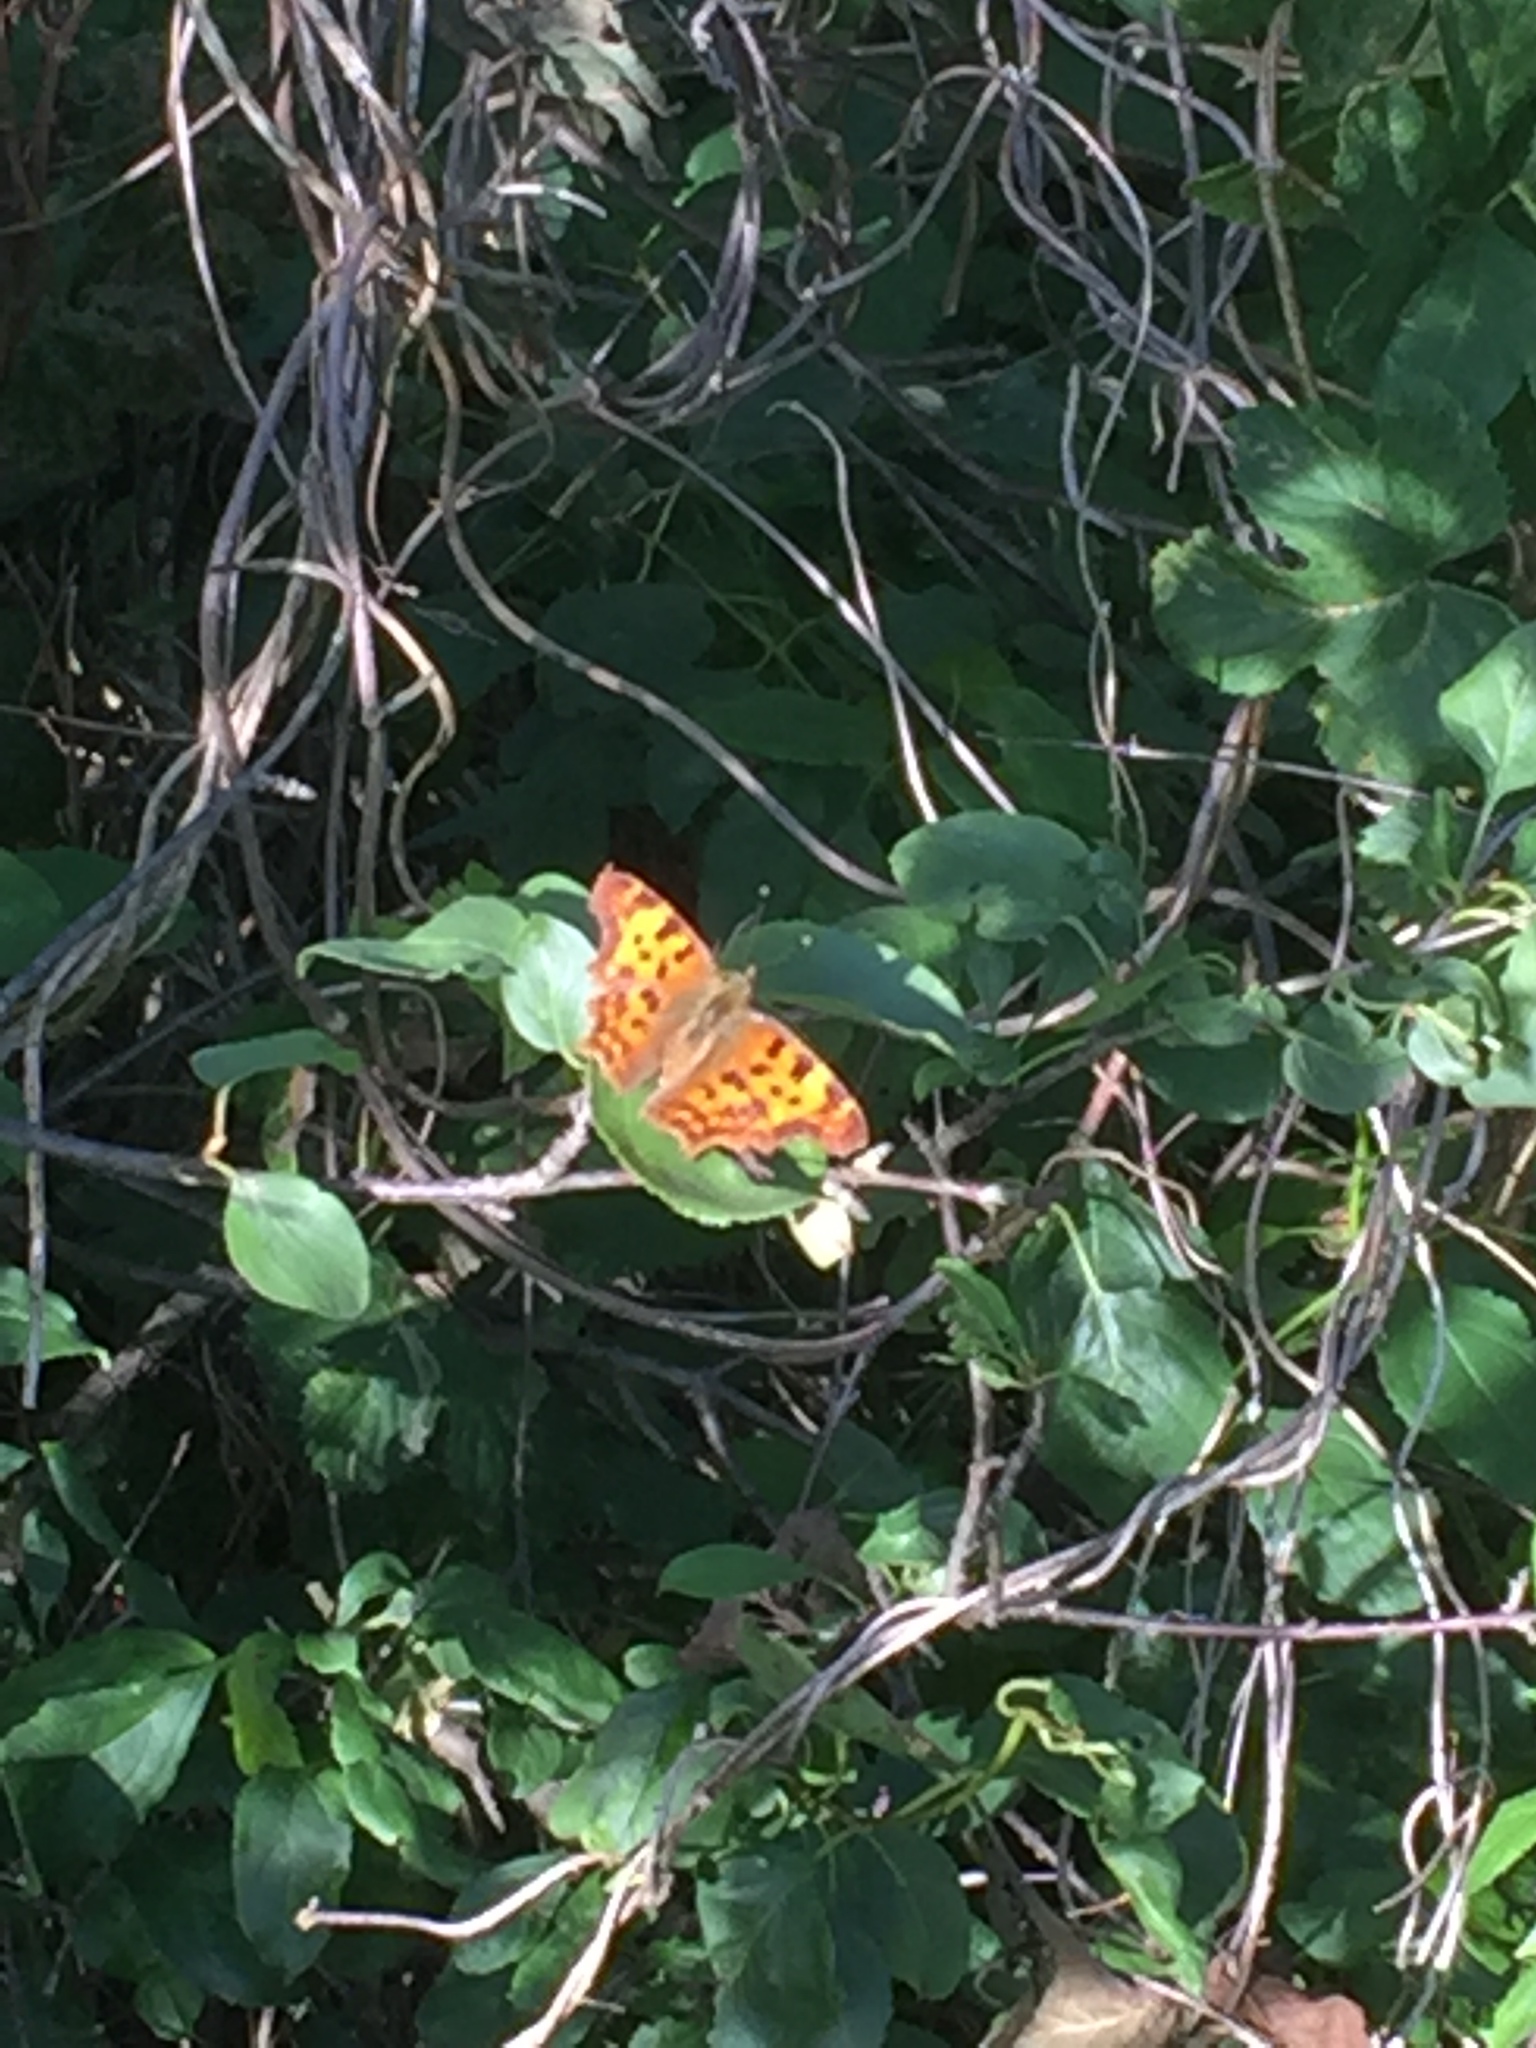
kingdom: Animalia
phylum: Arthropoda
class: Insecta
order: Lepidoptera
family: Nymphalidae
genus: Polygonia
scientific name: Polygonia c-album
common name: Comma
